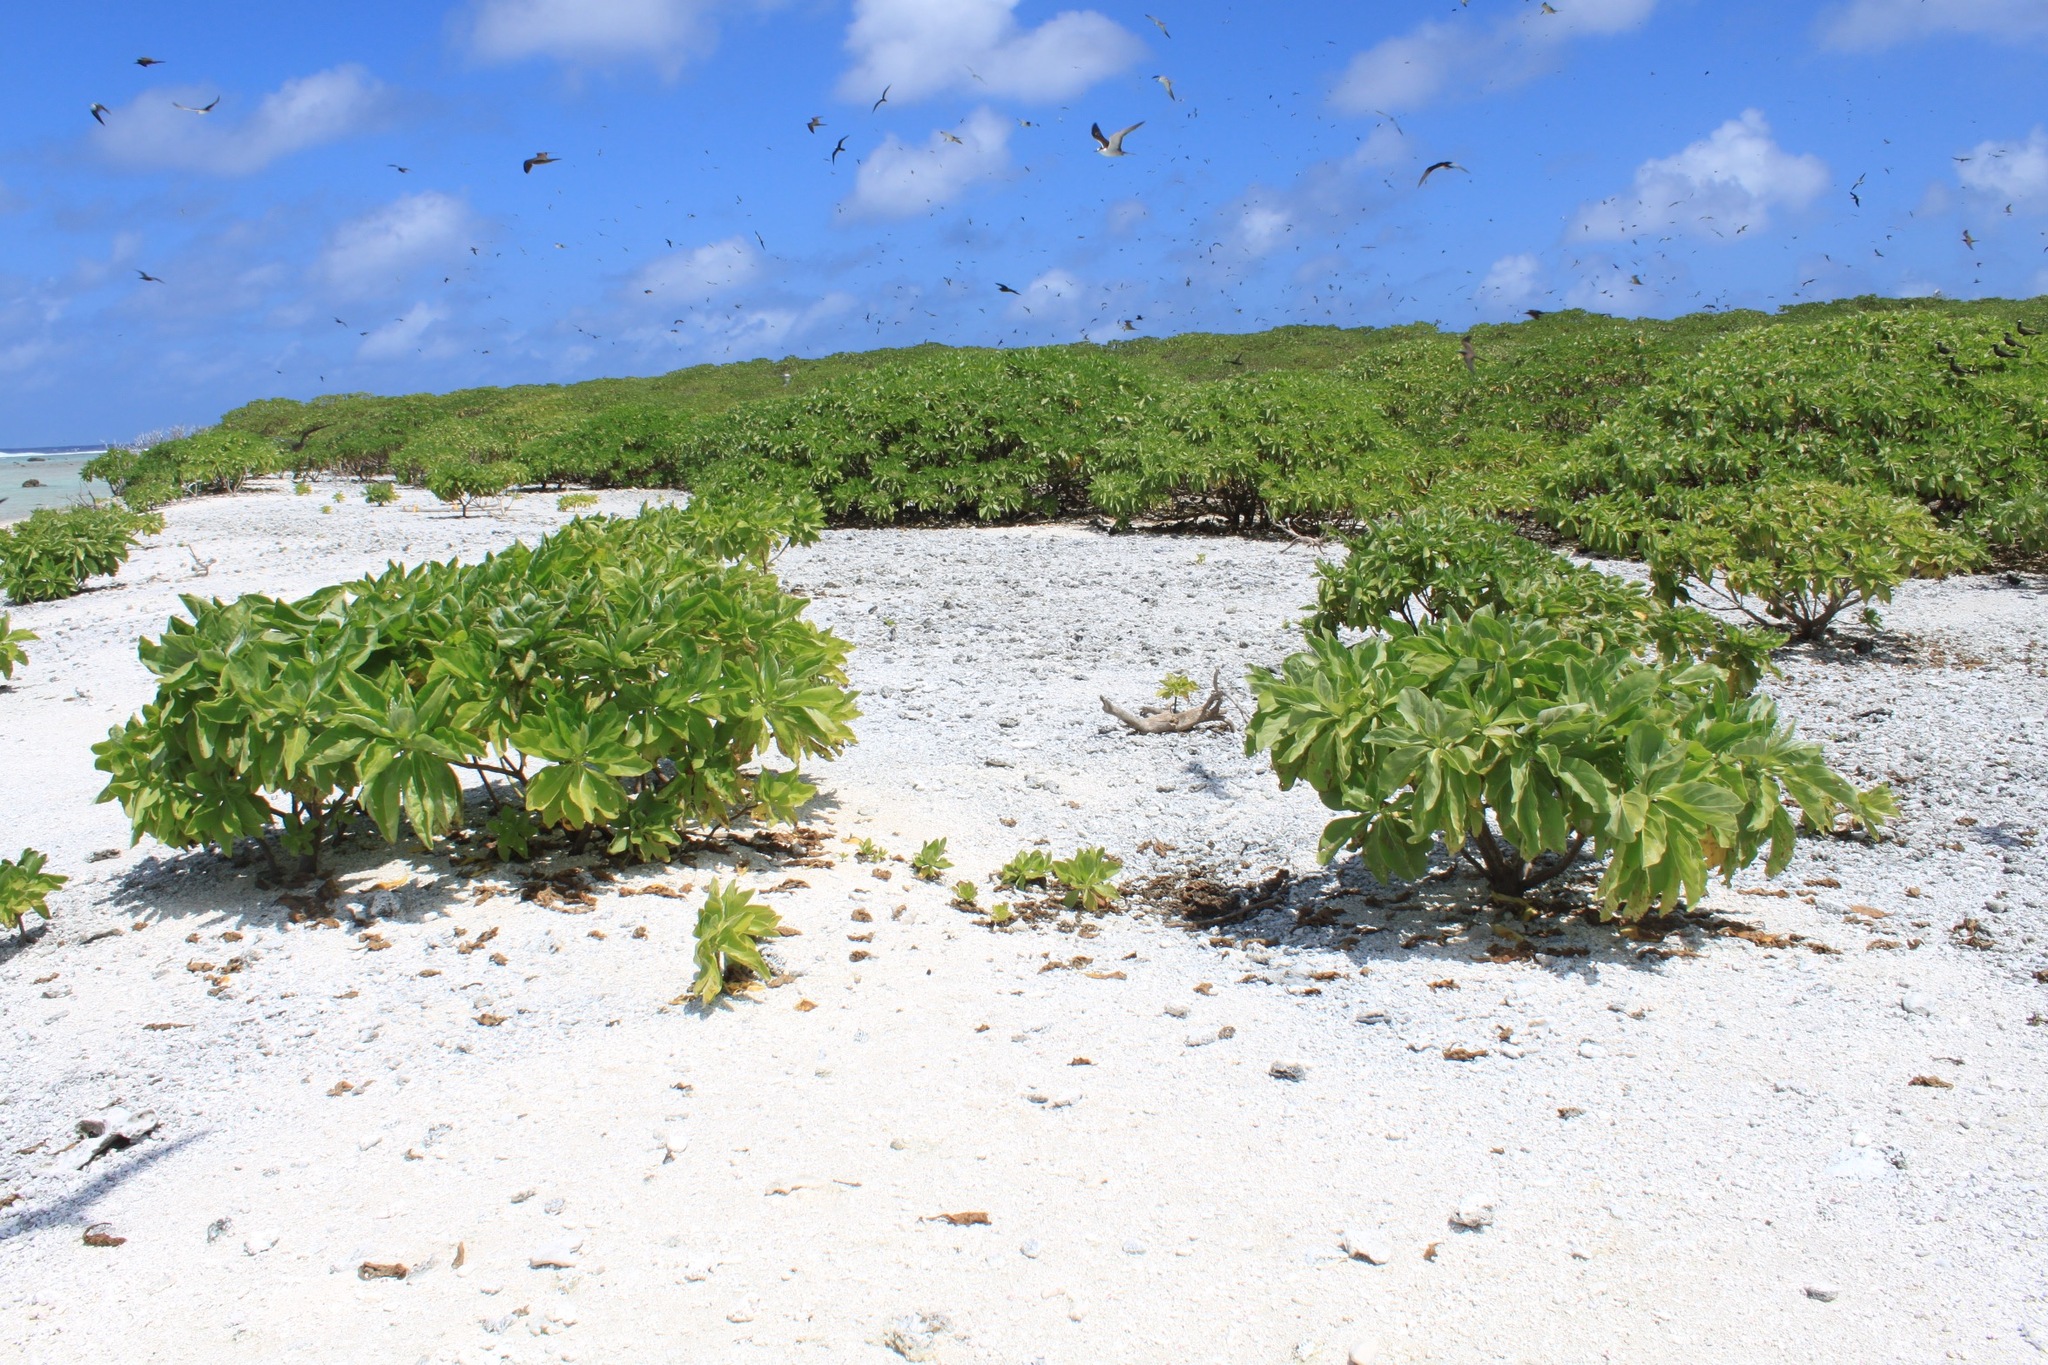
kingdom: Plantae
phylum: Tracheophyta
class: Magnoliopsida
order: Boraginales
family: Heliotropiaceae
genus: Heliotropium
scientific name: Heliotropium velutinum
